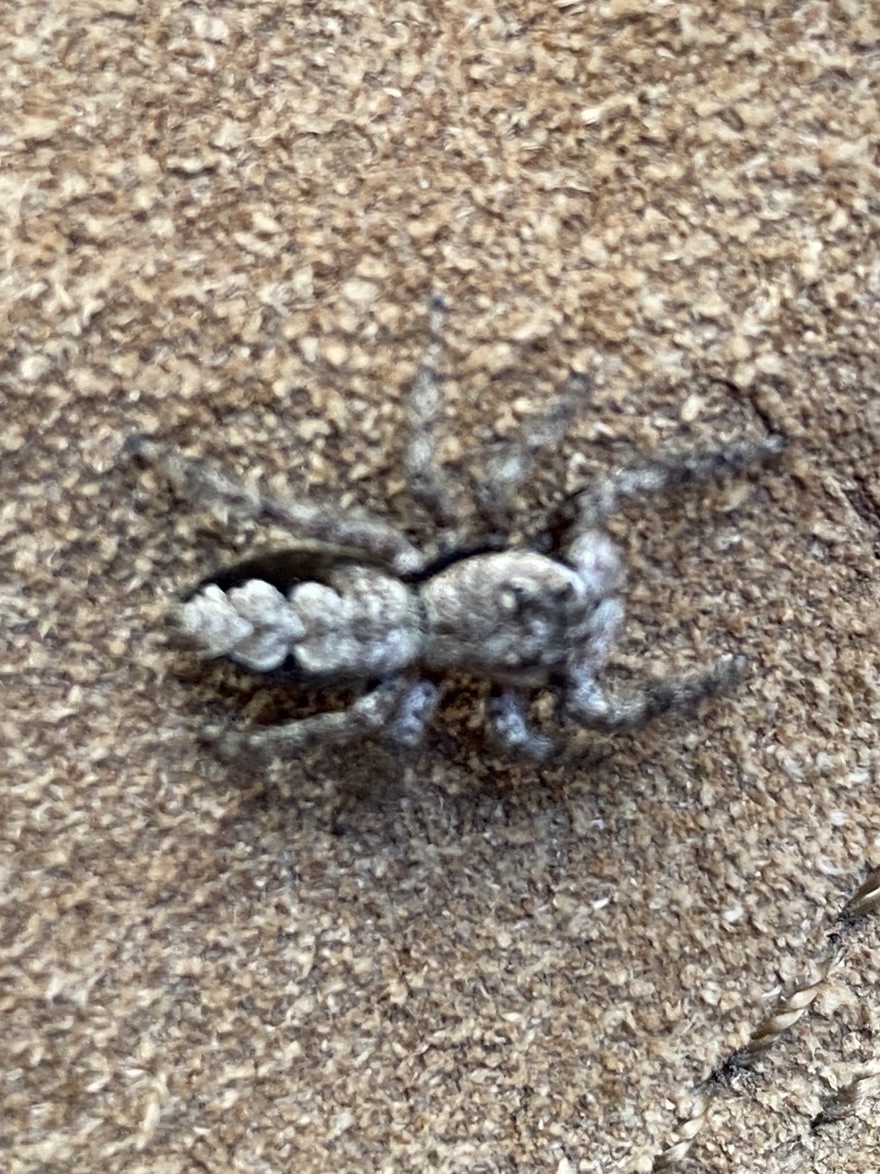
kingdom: Animalia
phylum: Arthropoda
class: Arachnida
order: Araneae
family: Salticidae
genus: Platycryptus
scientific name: Platycryptus undatus
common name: Tan jumping spider
